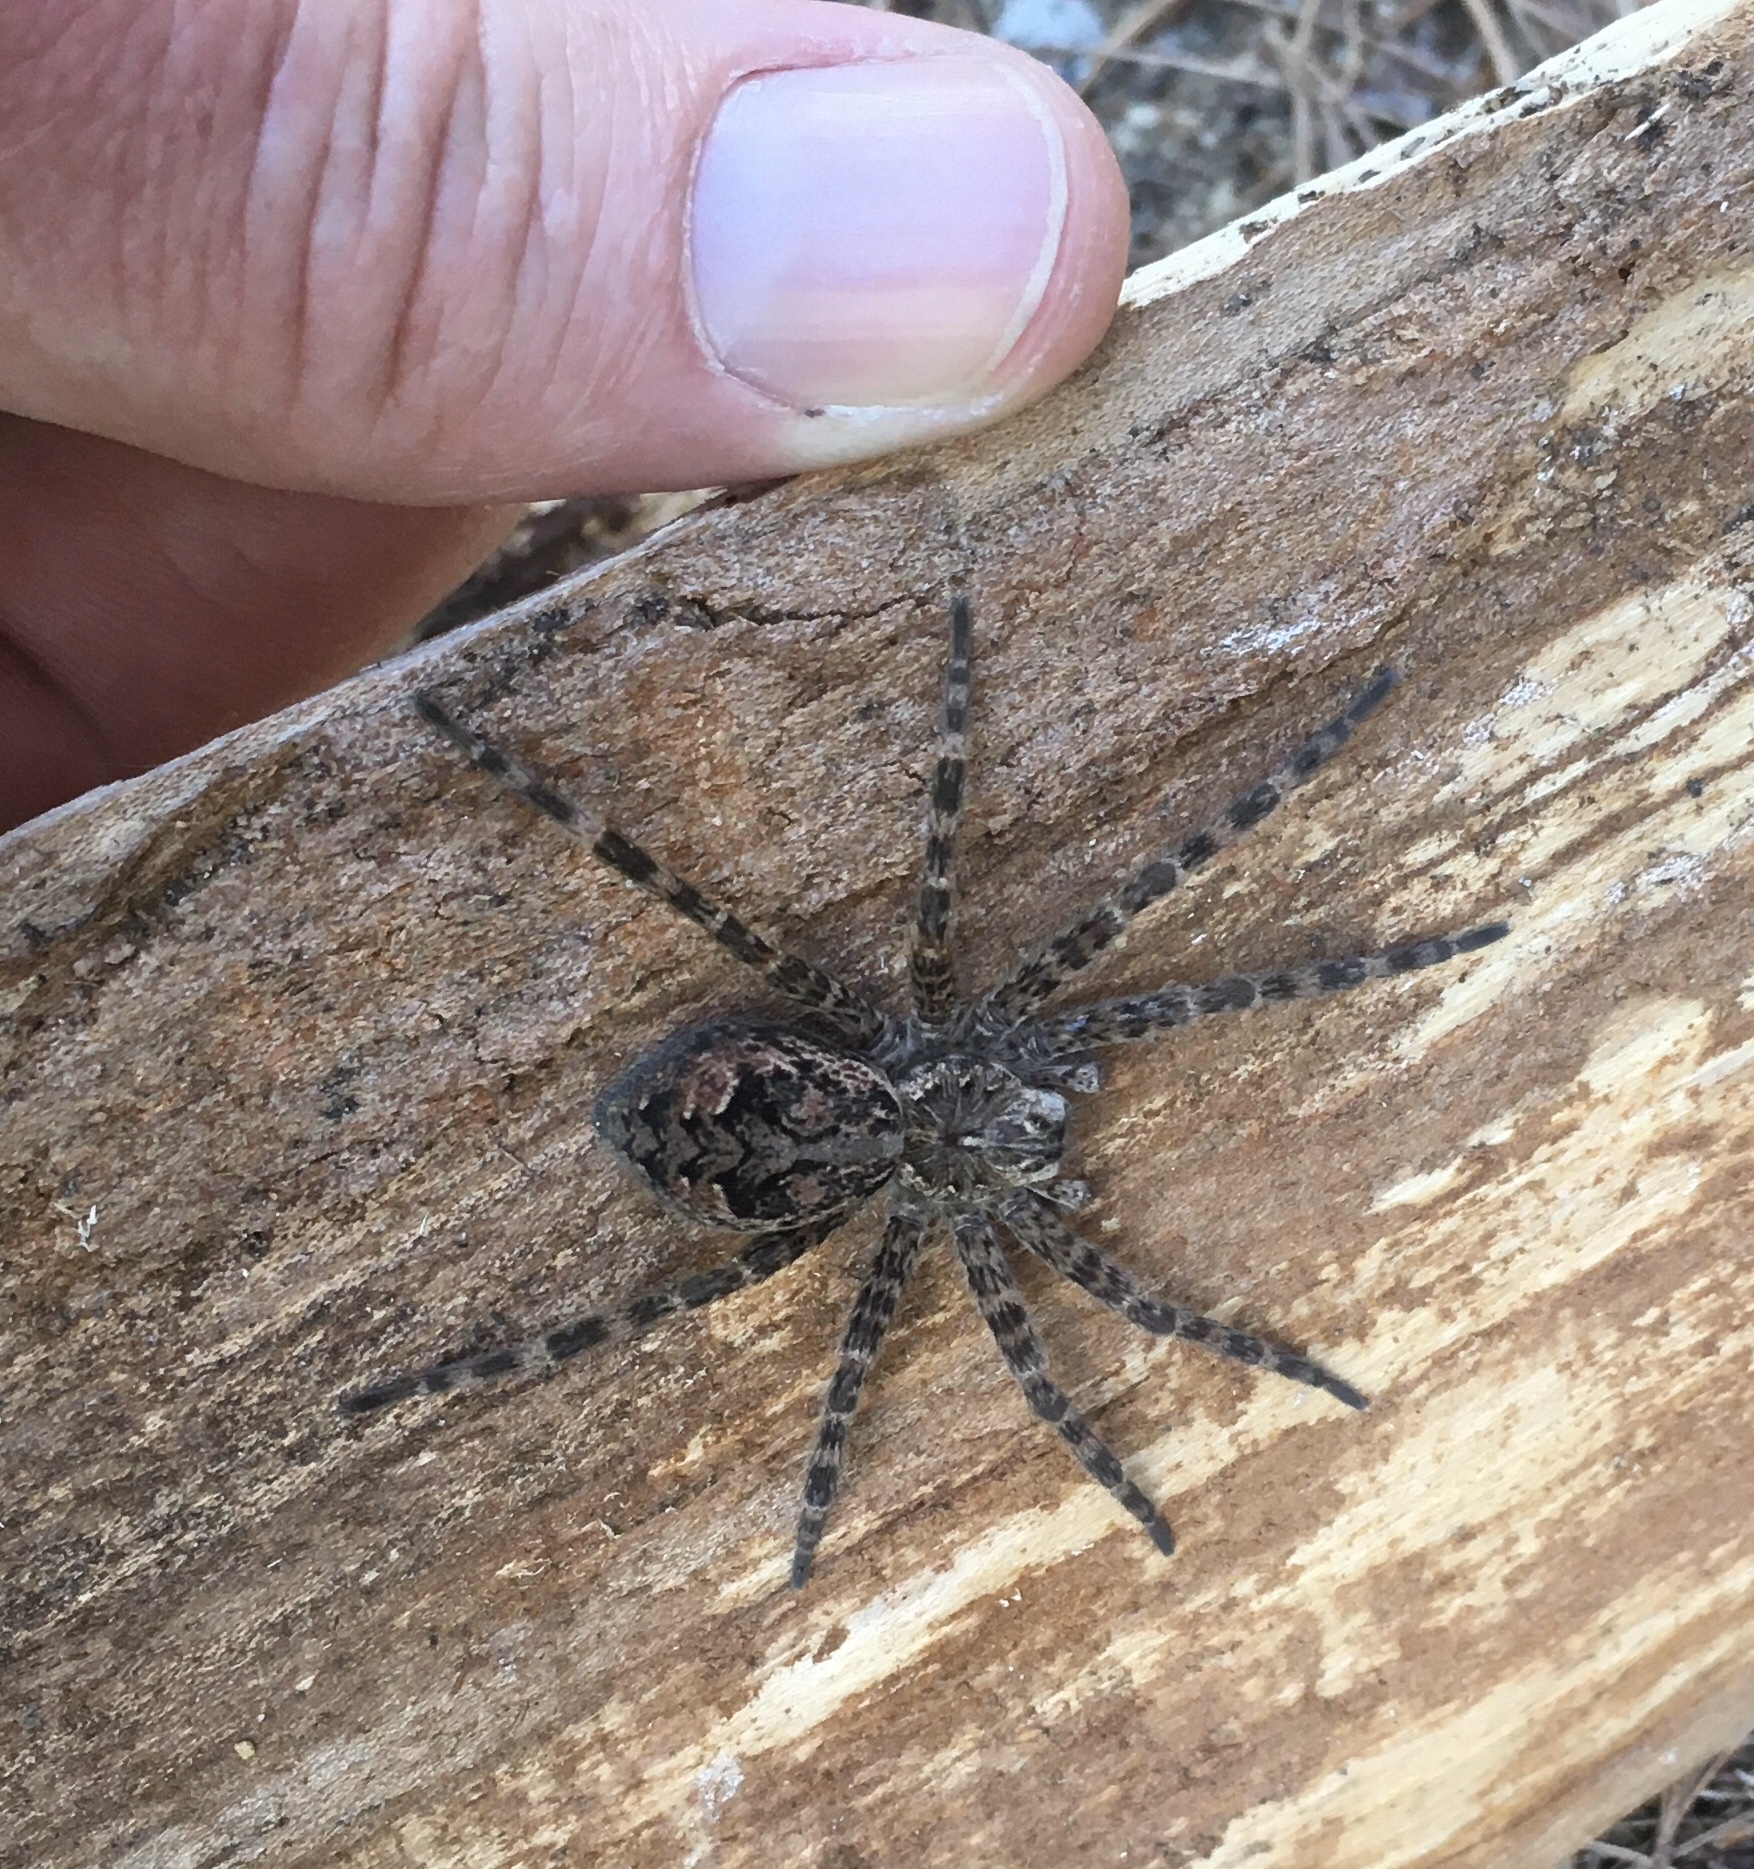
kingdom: Animalia
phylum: Arthropoda
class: Arachnida
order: Araneae
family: Pisauridae
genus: Dolomedes
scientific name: Dolomedes tenebrosus
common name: Dark fishing spider
